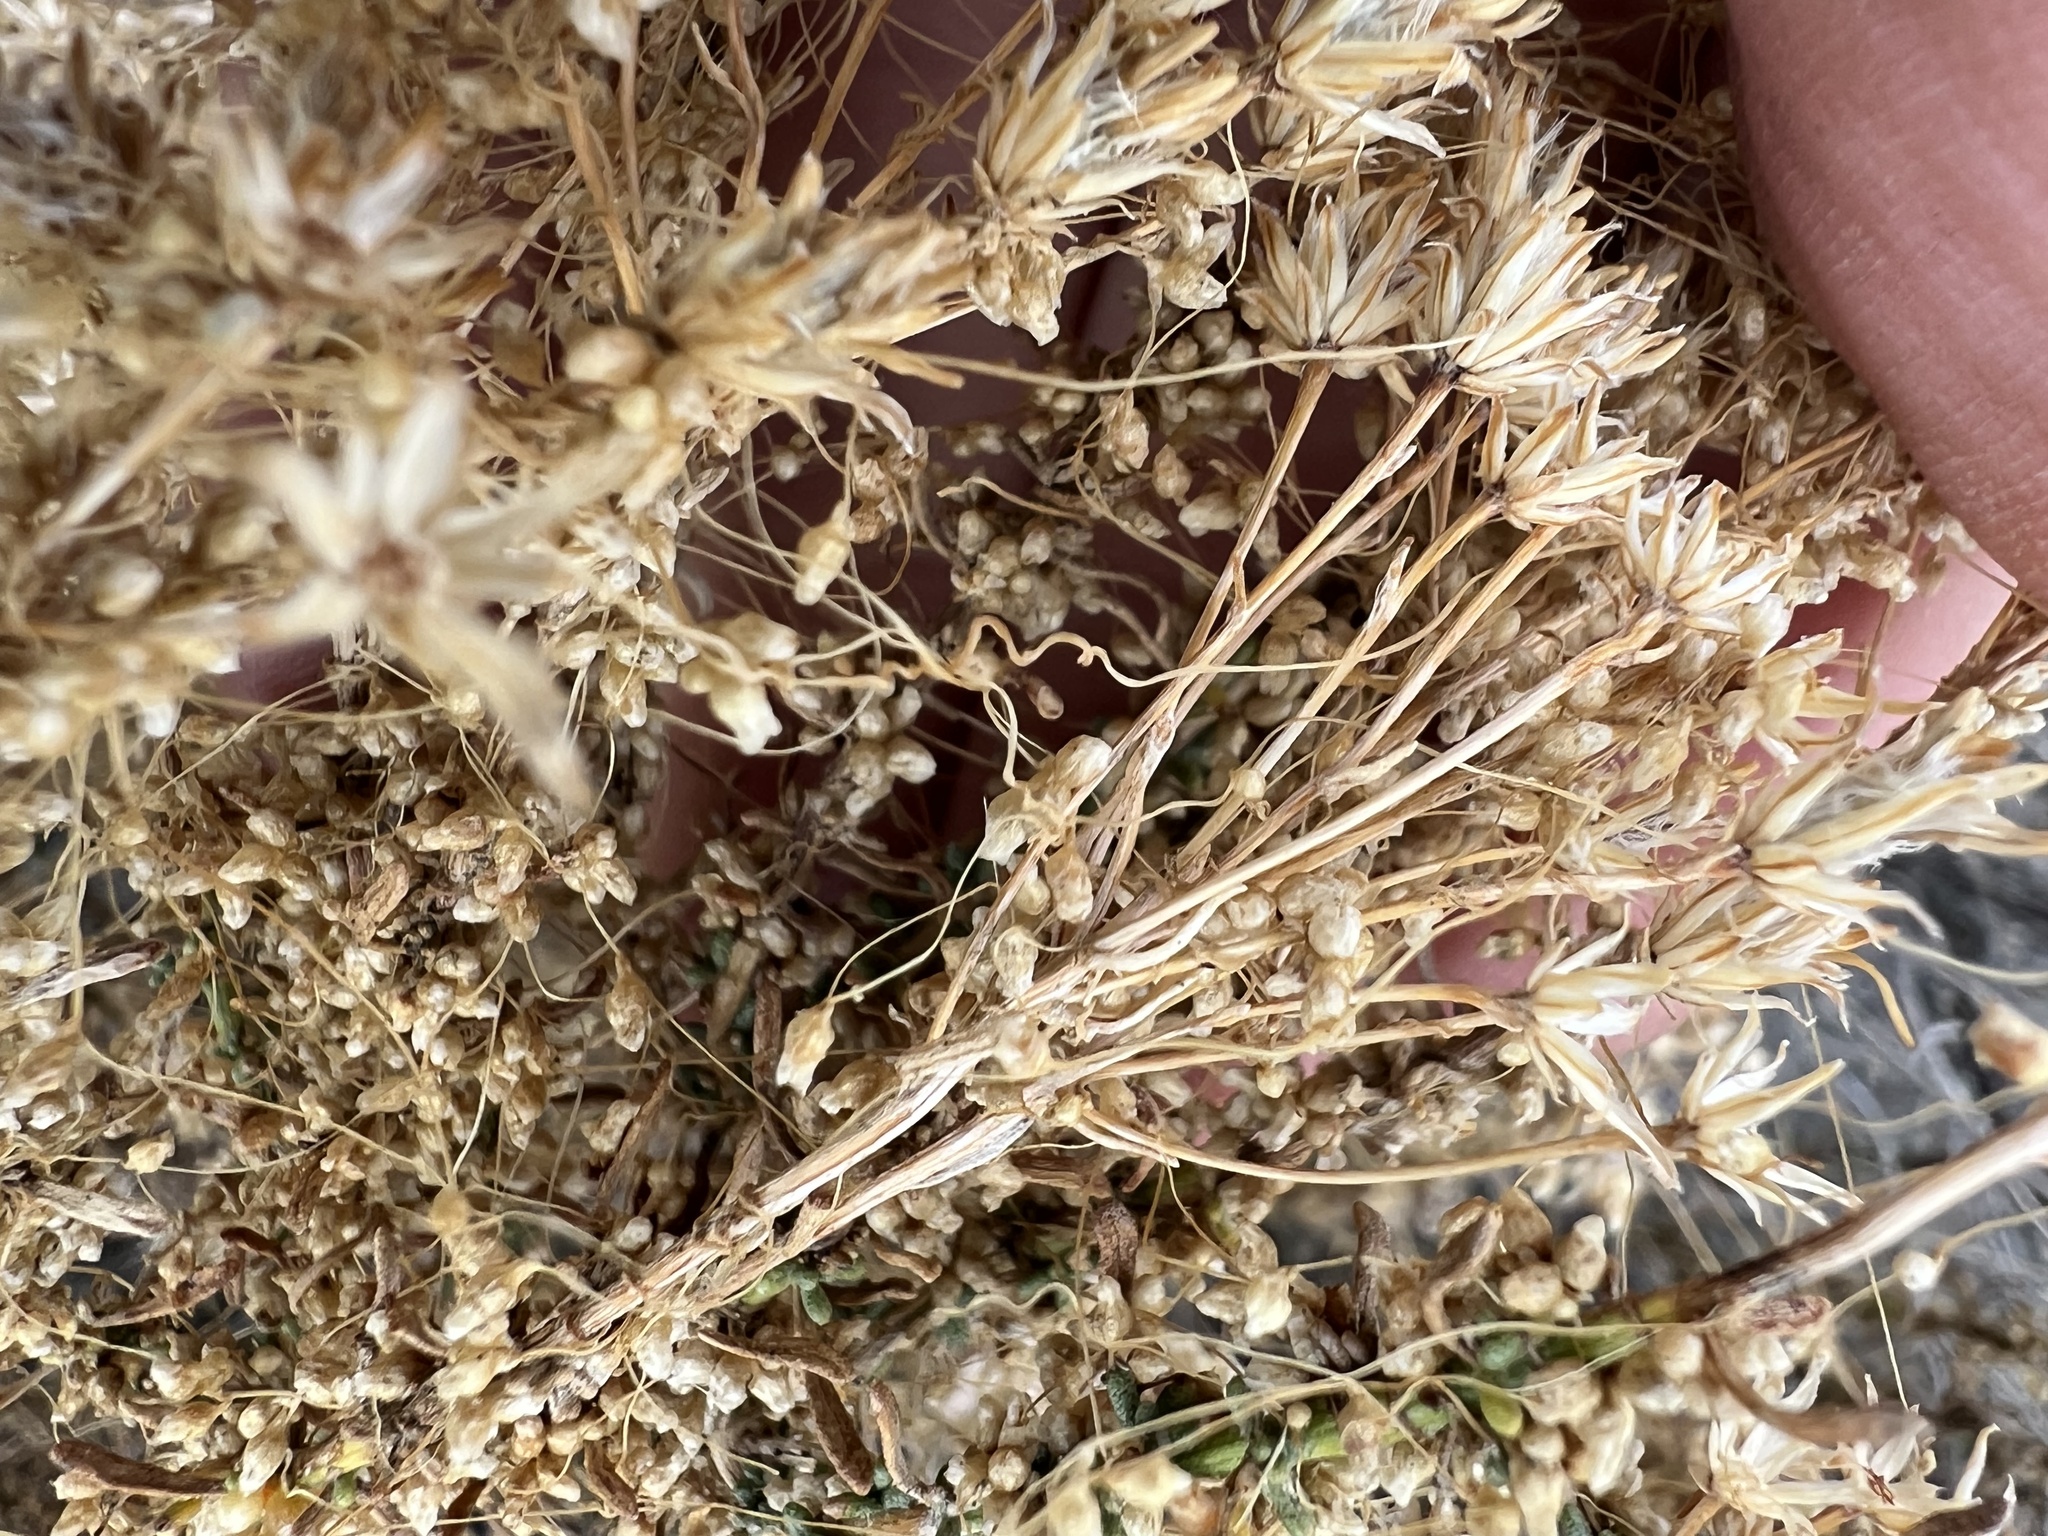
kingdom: Plantae
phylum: Tracheophyta
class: Magnoliopsida
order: Asterales
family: Asteraceae
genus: Ericameria
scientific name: Ericameria cooperi
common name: Cooper's goldenbush
